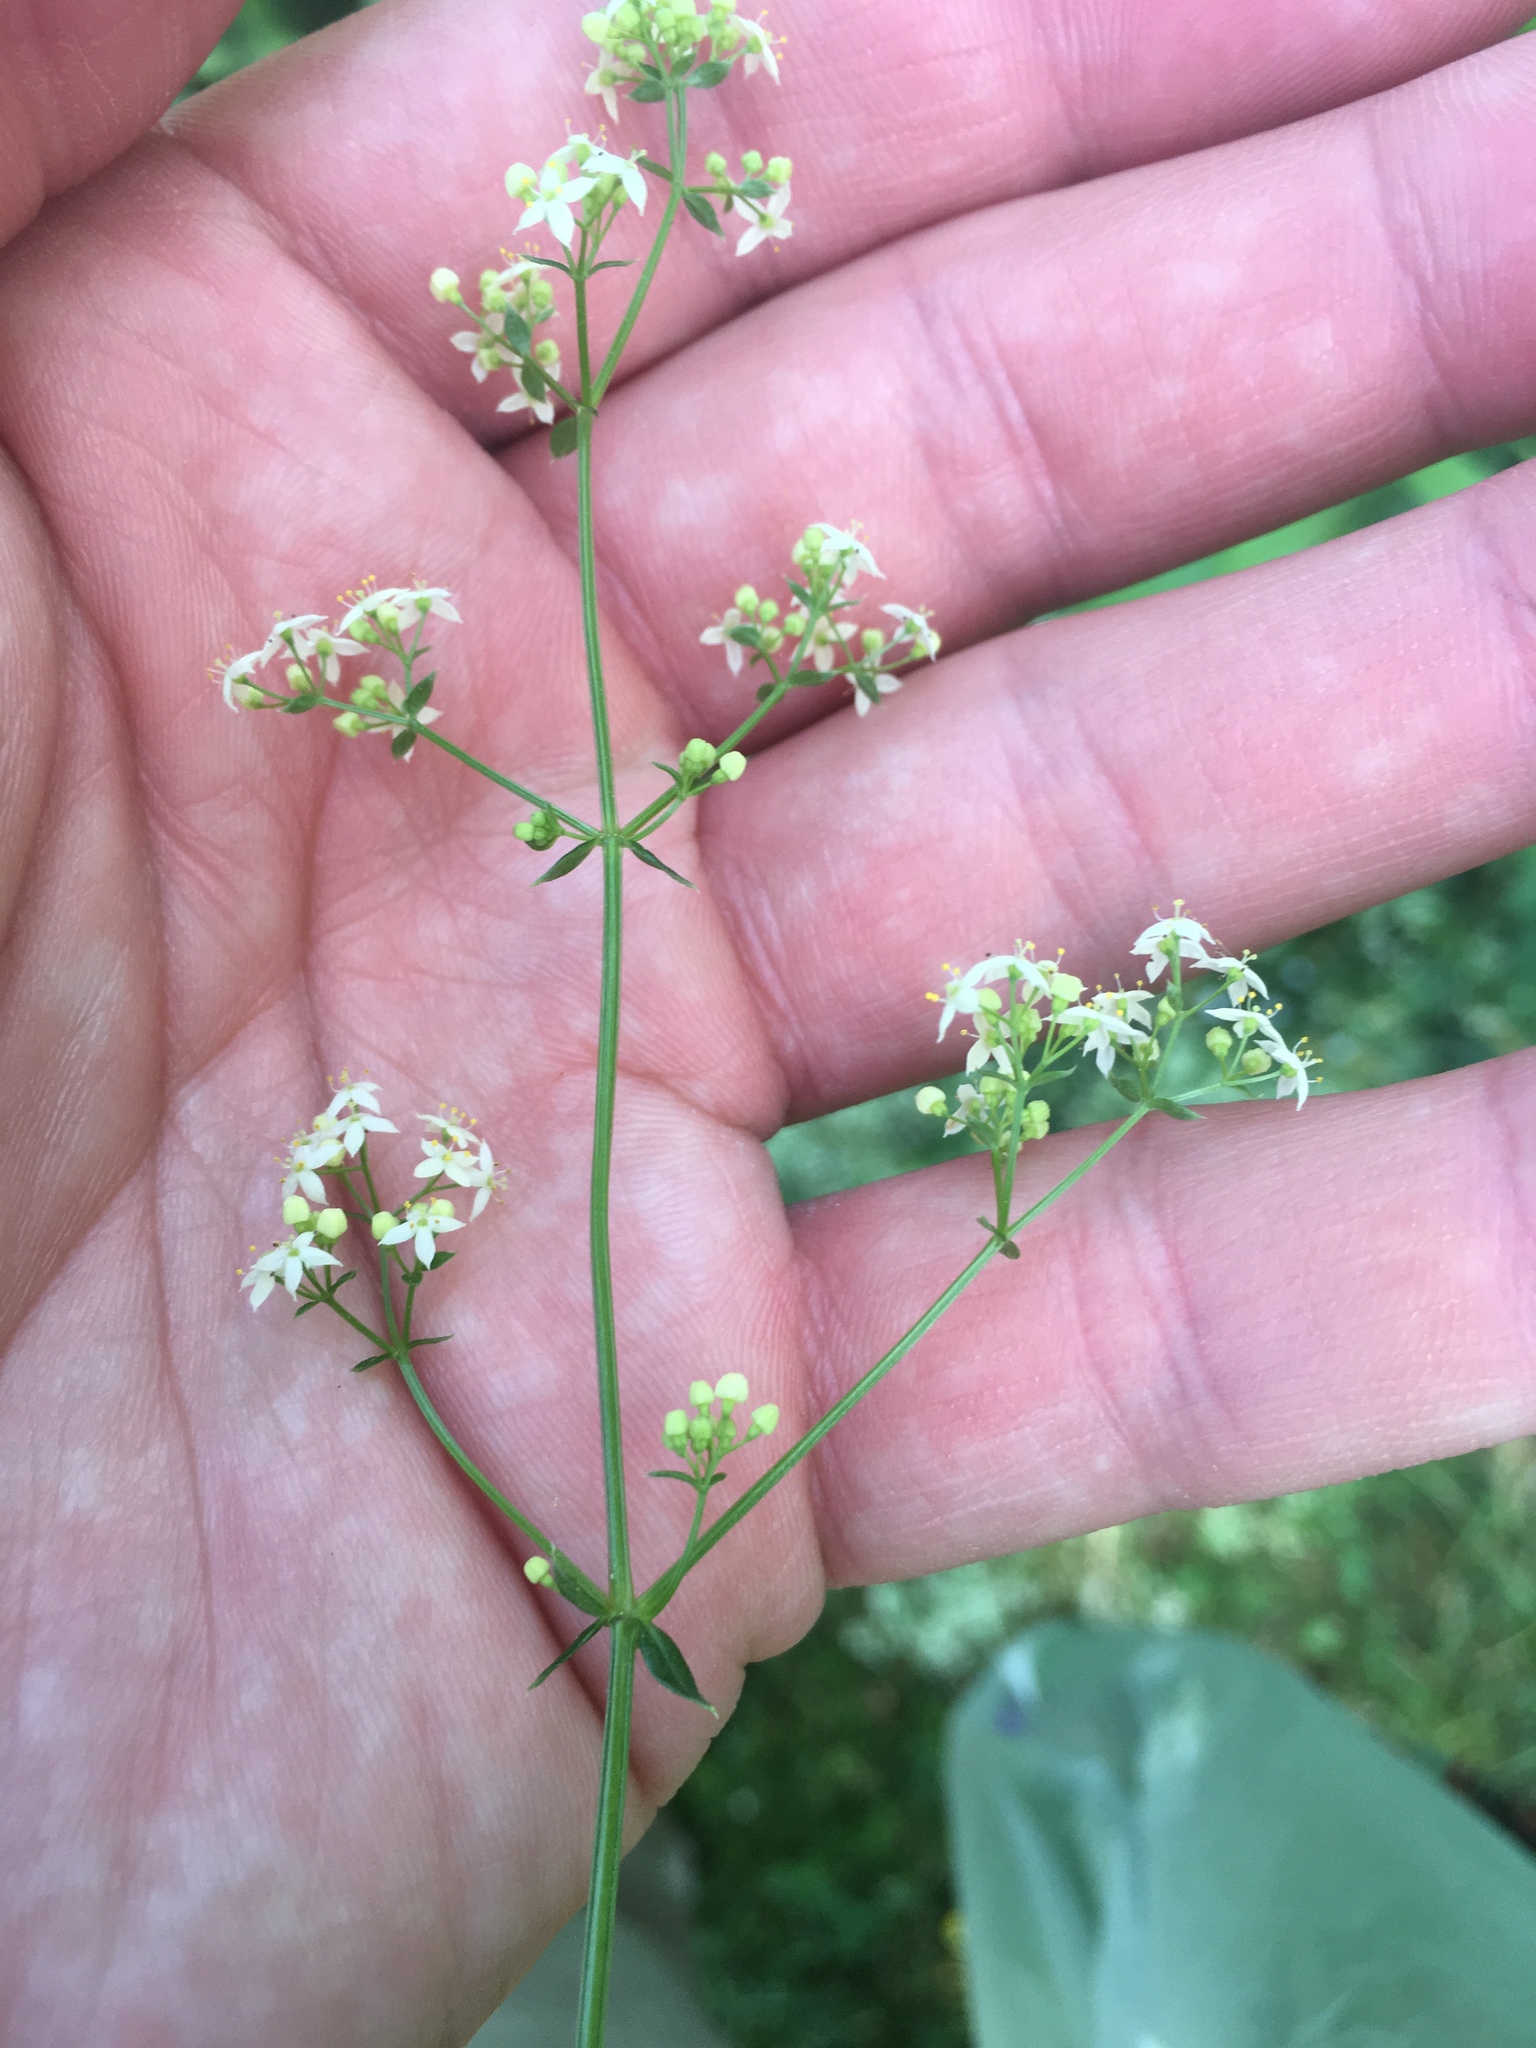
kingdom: Plantae
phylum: Tracheophyta
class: Magnoliopsida
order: Gentianales
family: Rubiaceae
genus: Galium
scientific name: Galium mollugo
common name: Hedge bedstraw
